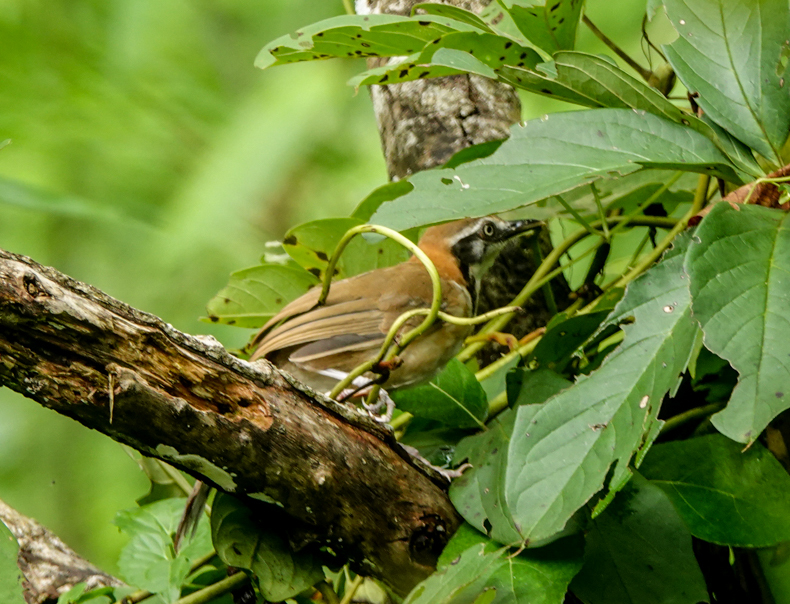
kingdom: Animalia
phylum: Chordata
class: Aves
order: Passeriformes
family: Leiothrichidae
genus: Garrulax
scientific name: Garrulax monileger
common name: Lesser necklaced laughingthrush
